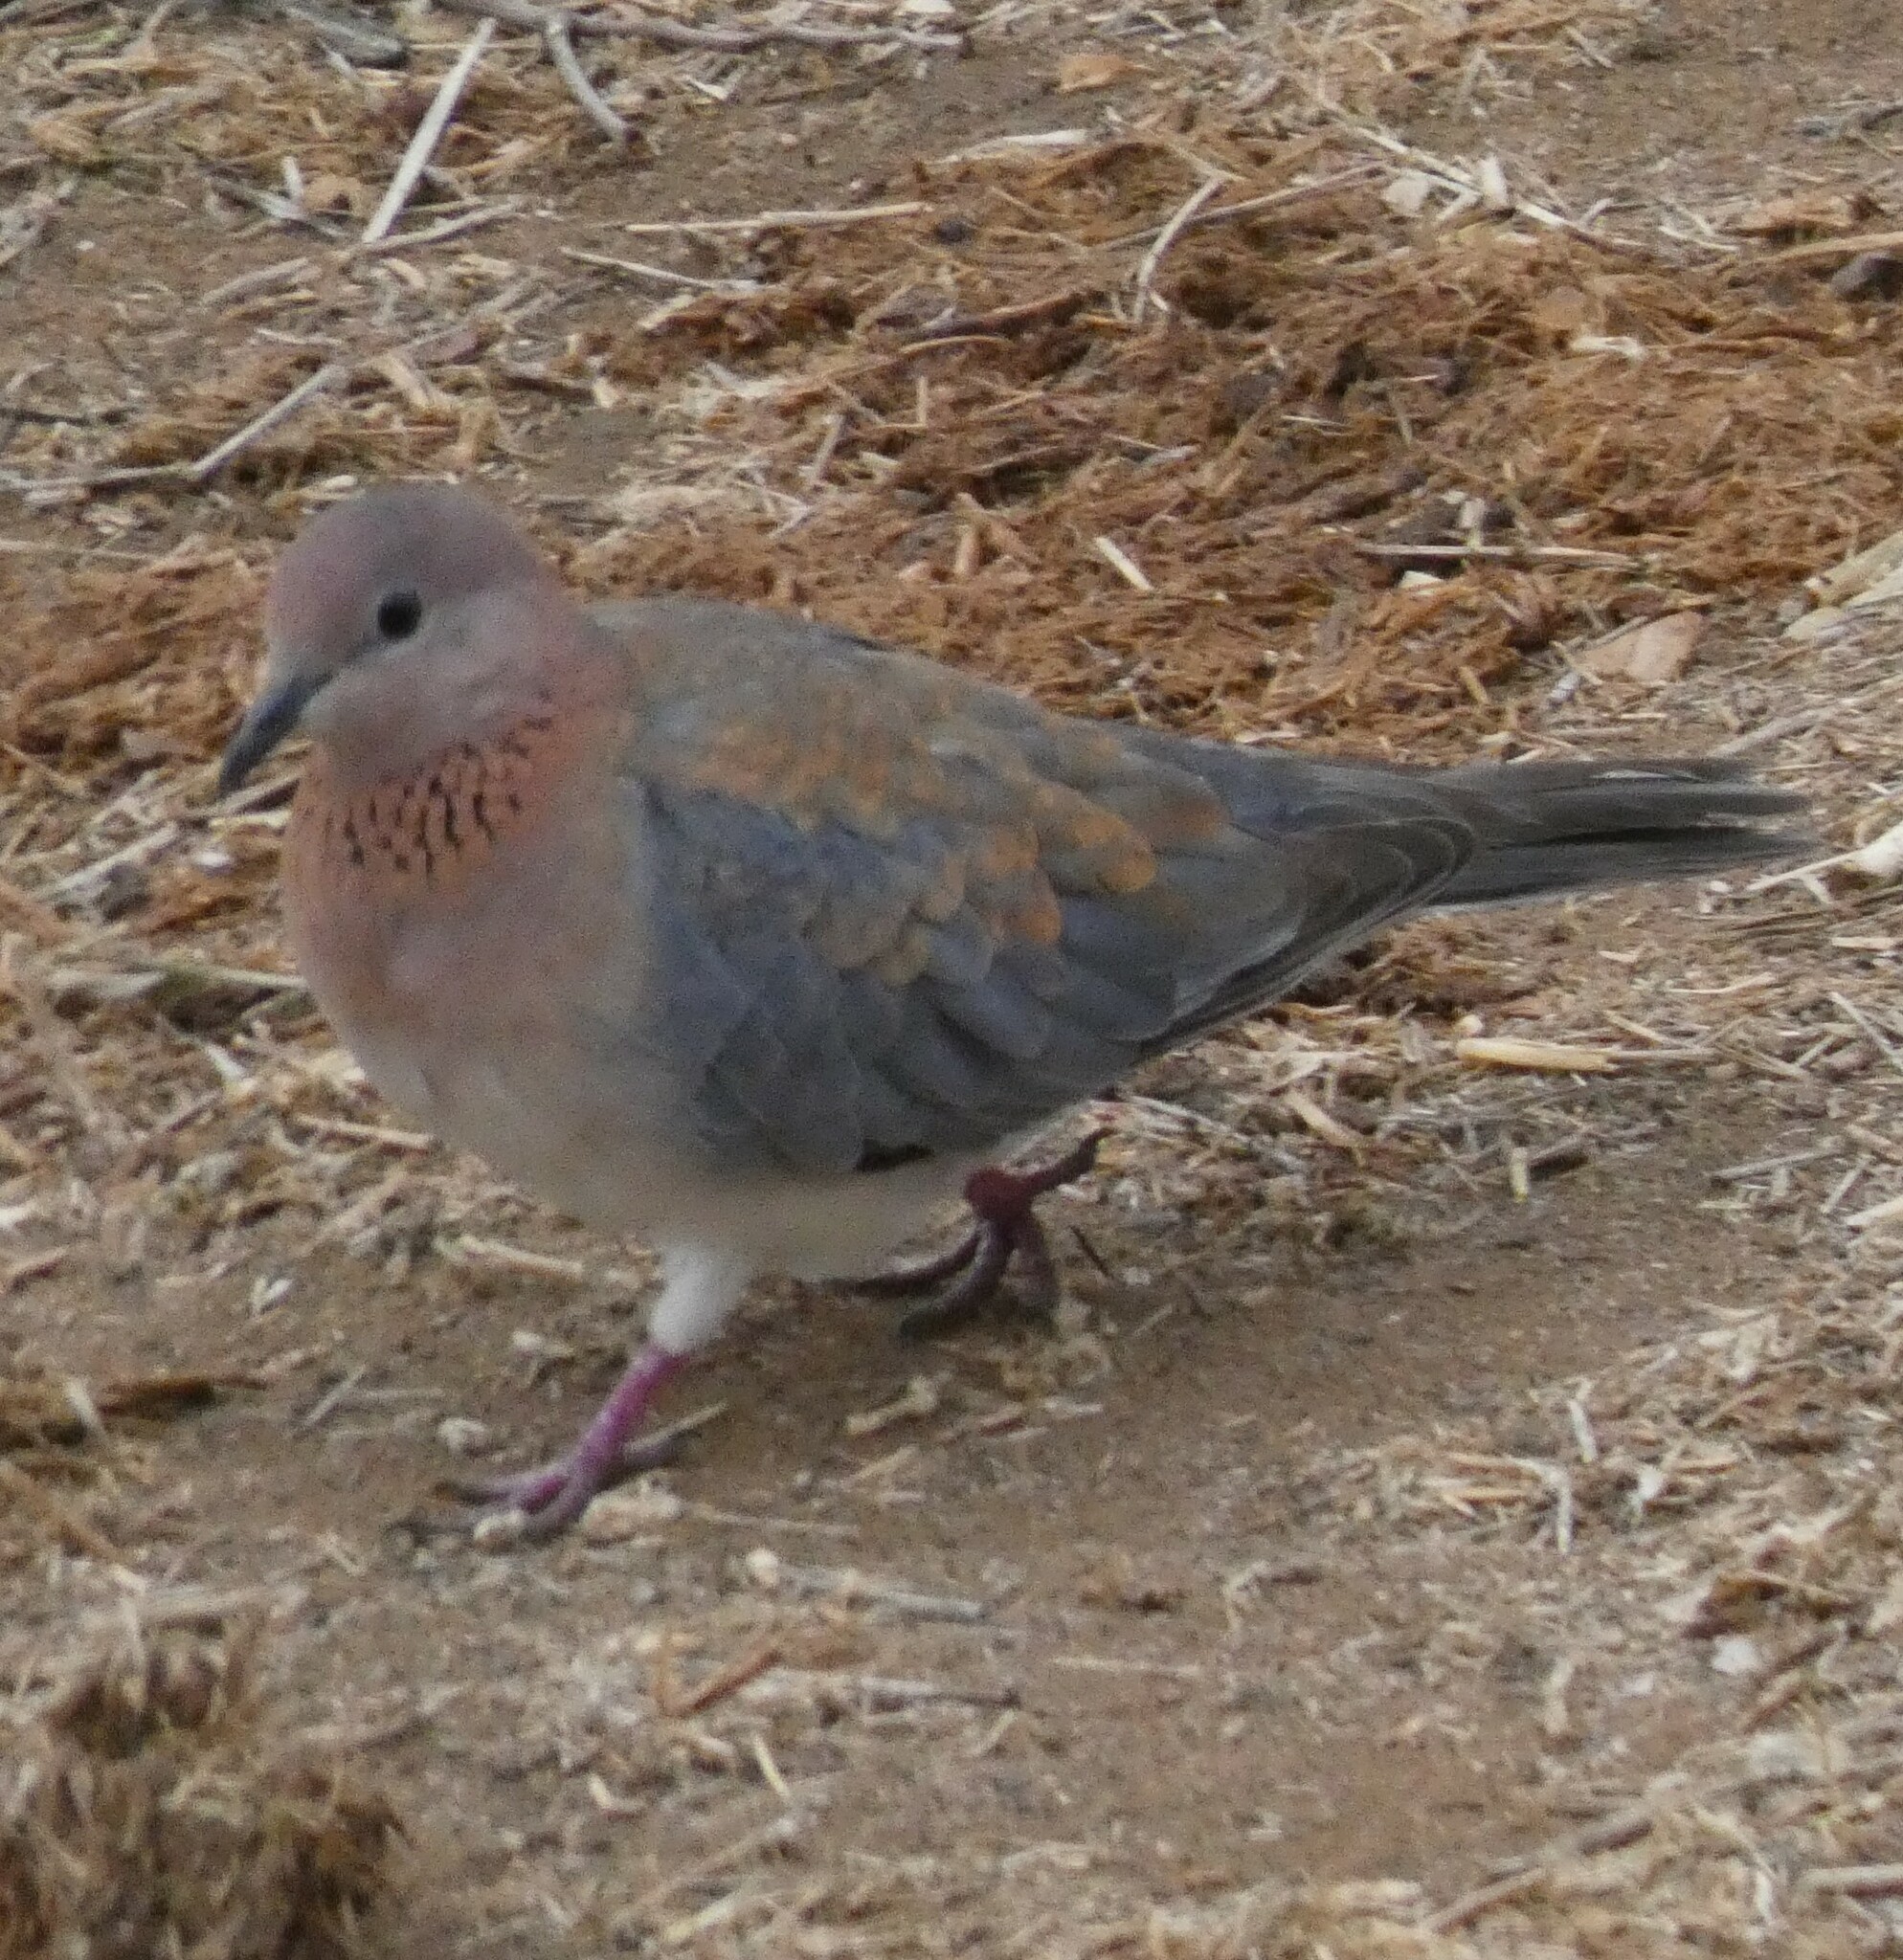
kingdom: Animalia
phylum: Chordata
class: Aves
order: Columbiformes
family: Columbidae
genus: Spilopelia
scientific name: Spilopelia senegalensis
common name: Laughing dove
